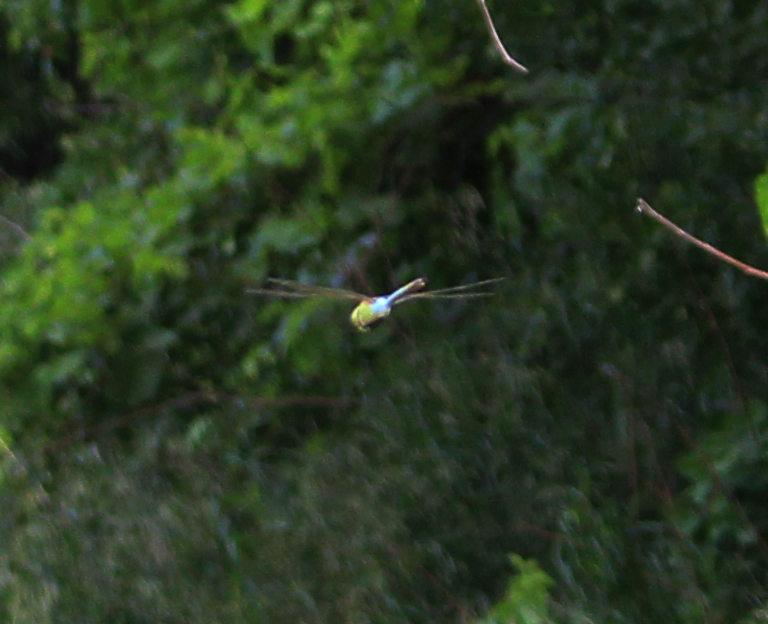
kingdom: Animalia
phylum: Arthropoda
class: Insecta
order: Odonata
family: Aeshnidae
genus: Anax
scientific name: Anax junius
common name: Common green darner
